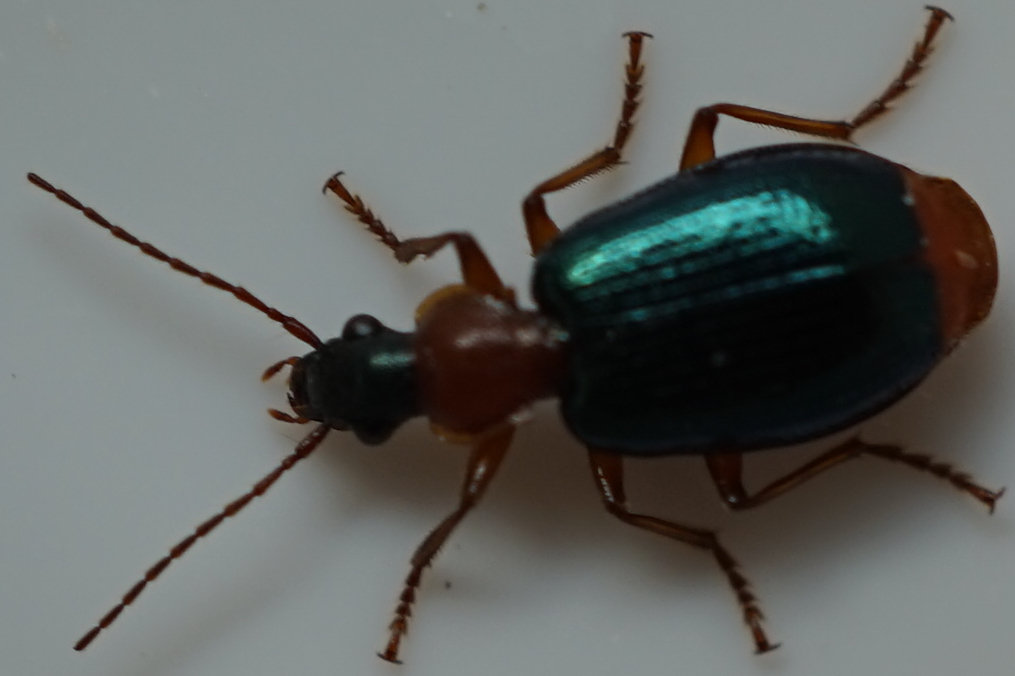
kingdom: Animalia
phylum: Arthropoda
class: Insecta
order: Coleoptera
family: Carabidae
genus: Lachnolebia
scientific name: Lachnolebia cribricollis
